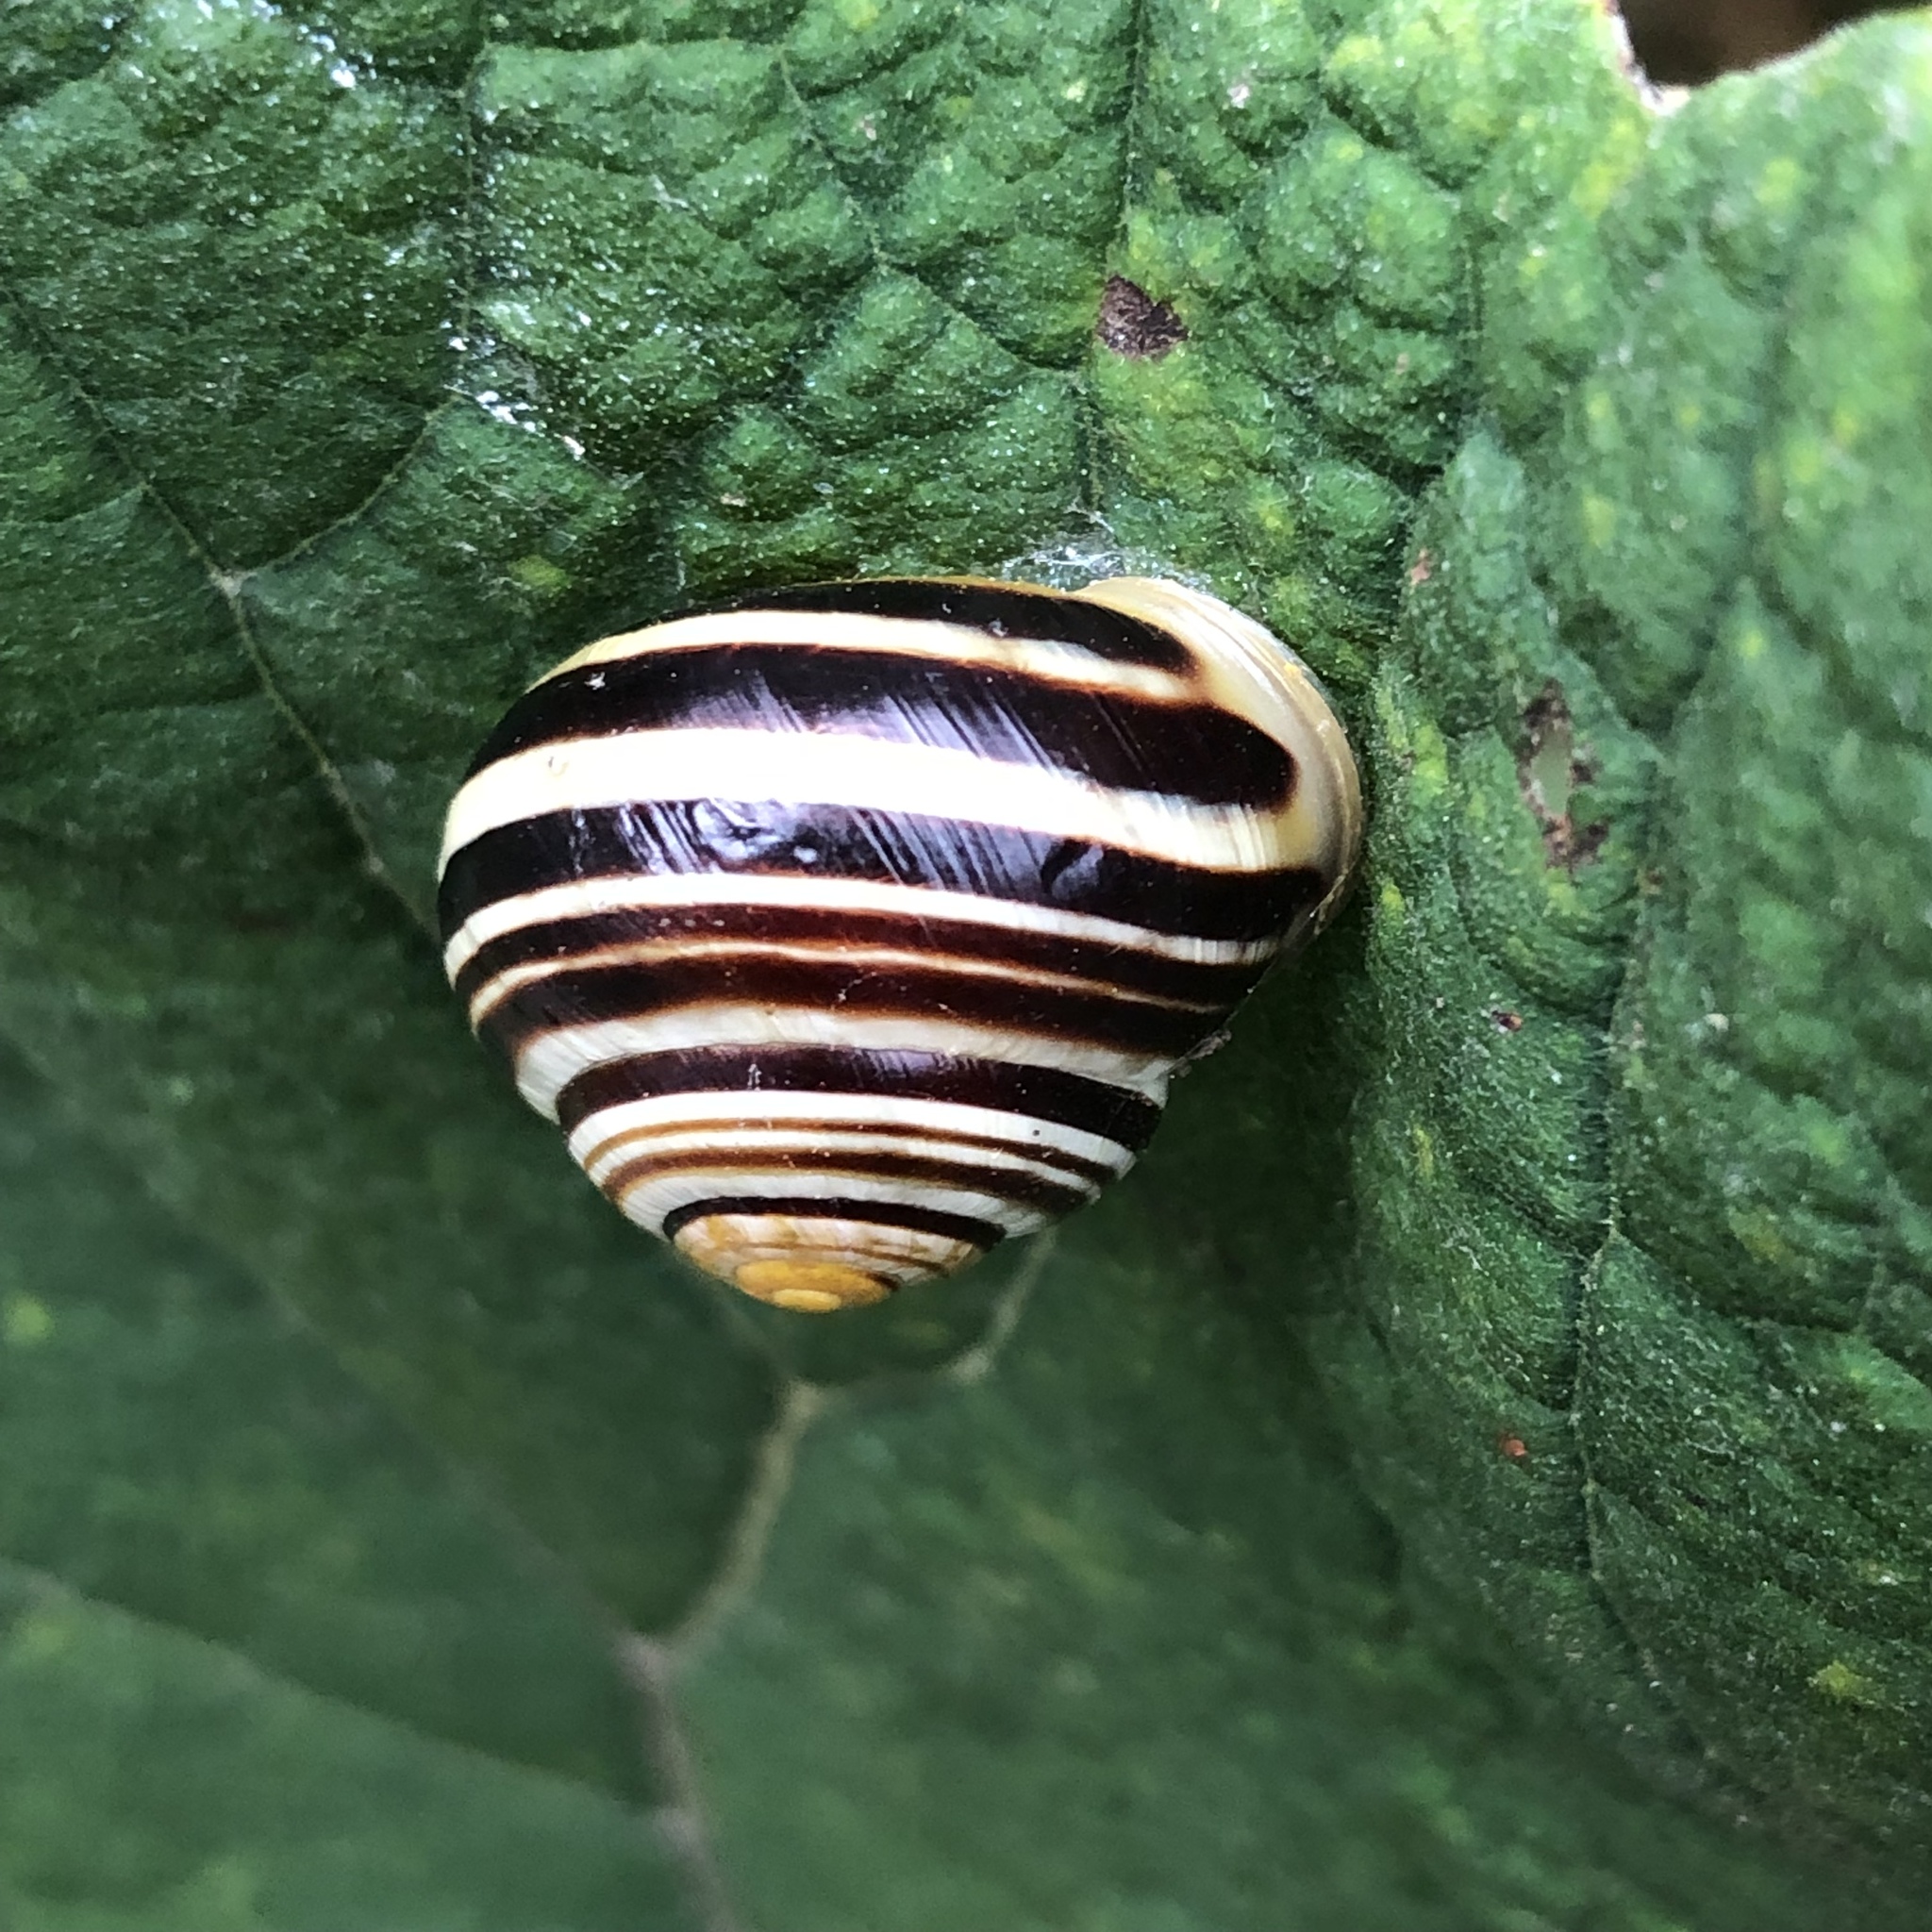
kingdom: Animalia
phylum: Mollusca
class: Gastropoda
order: Stylommatophora
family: Helicidae
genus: Cepaea
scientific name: Cepaea hortensis
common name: White-lip gardensnail
